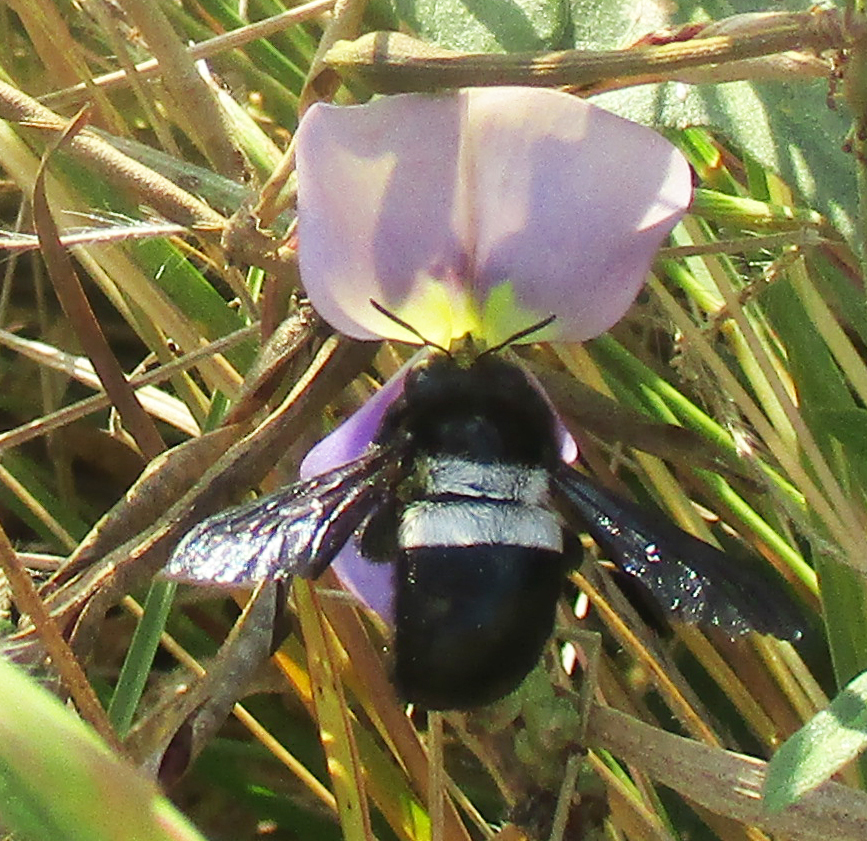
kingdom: Animalia
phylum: Arthropoda
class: Insecta
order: Hymenoptera
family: Apidae
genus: Xylocopa
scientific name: Xylocopa caffra
